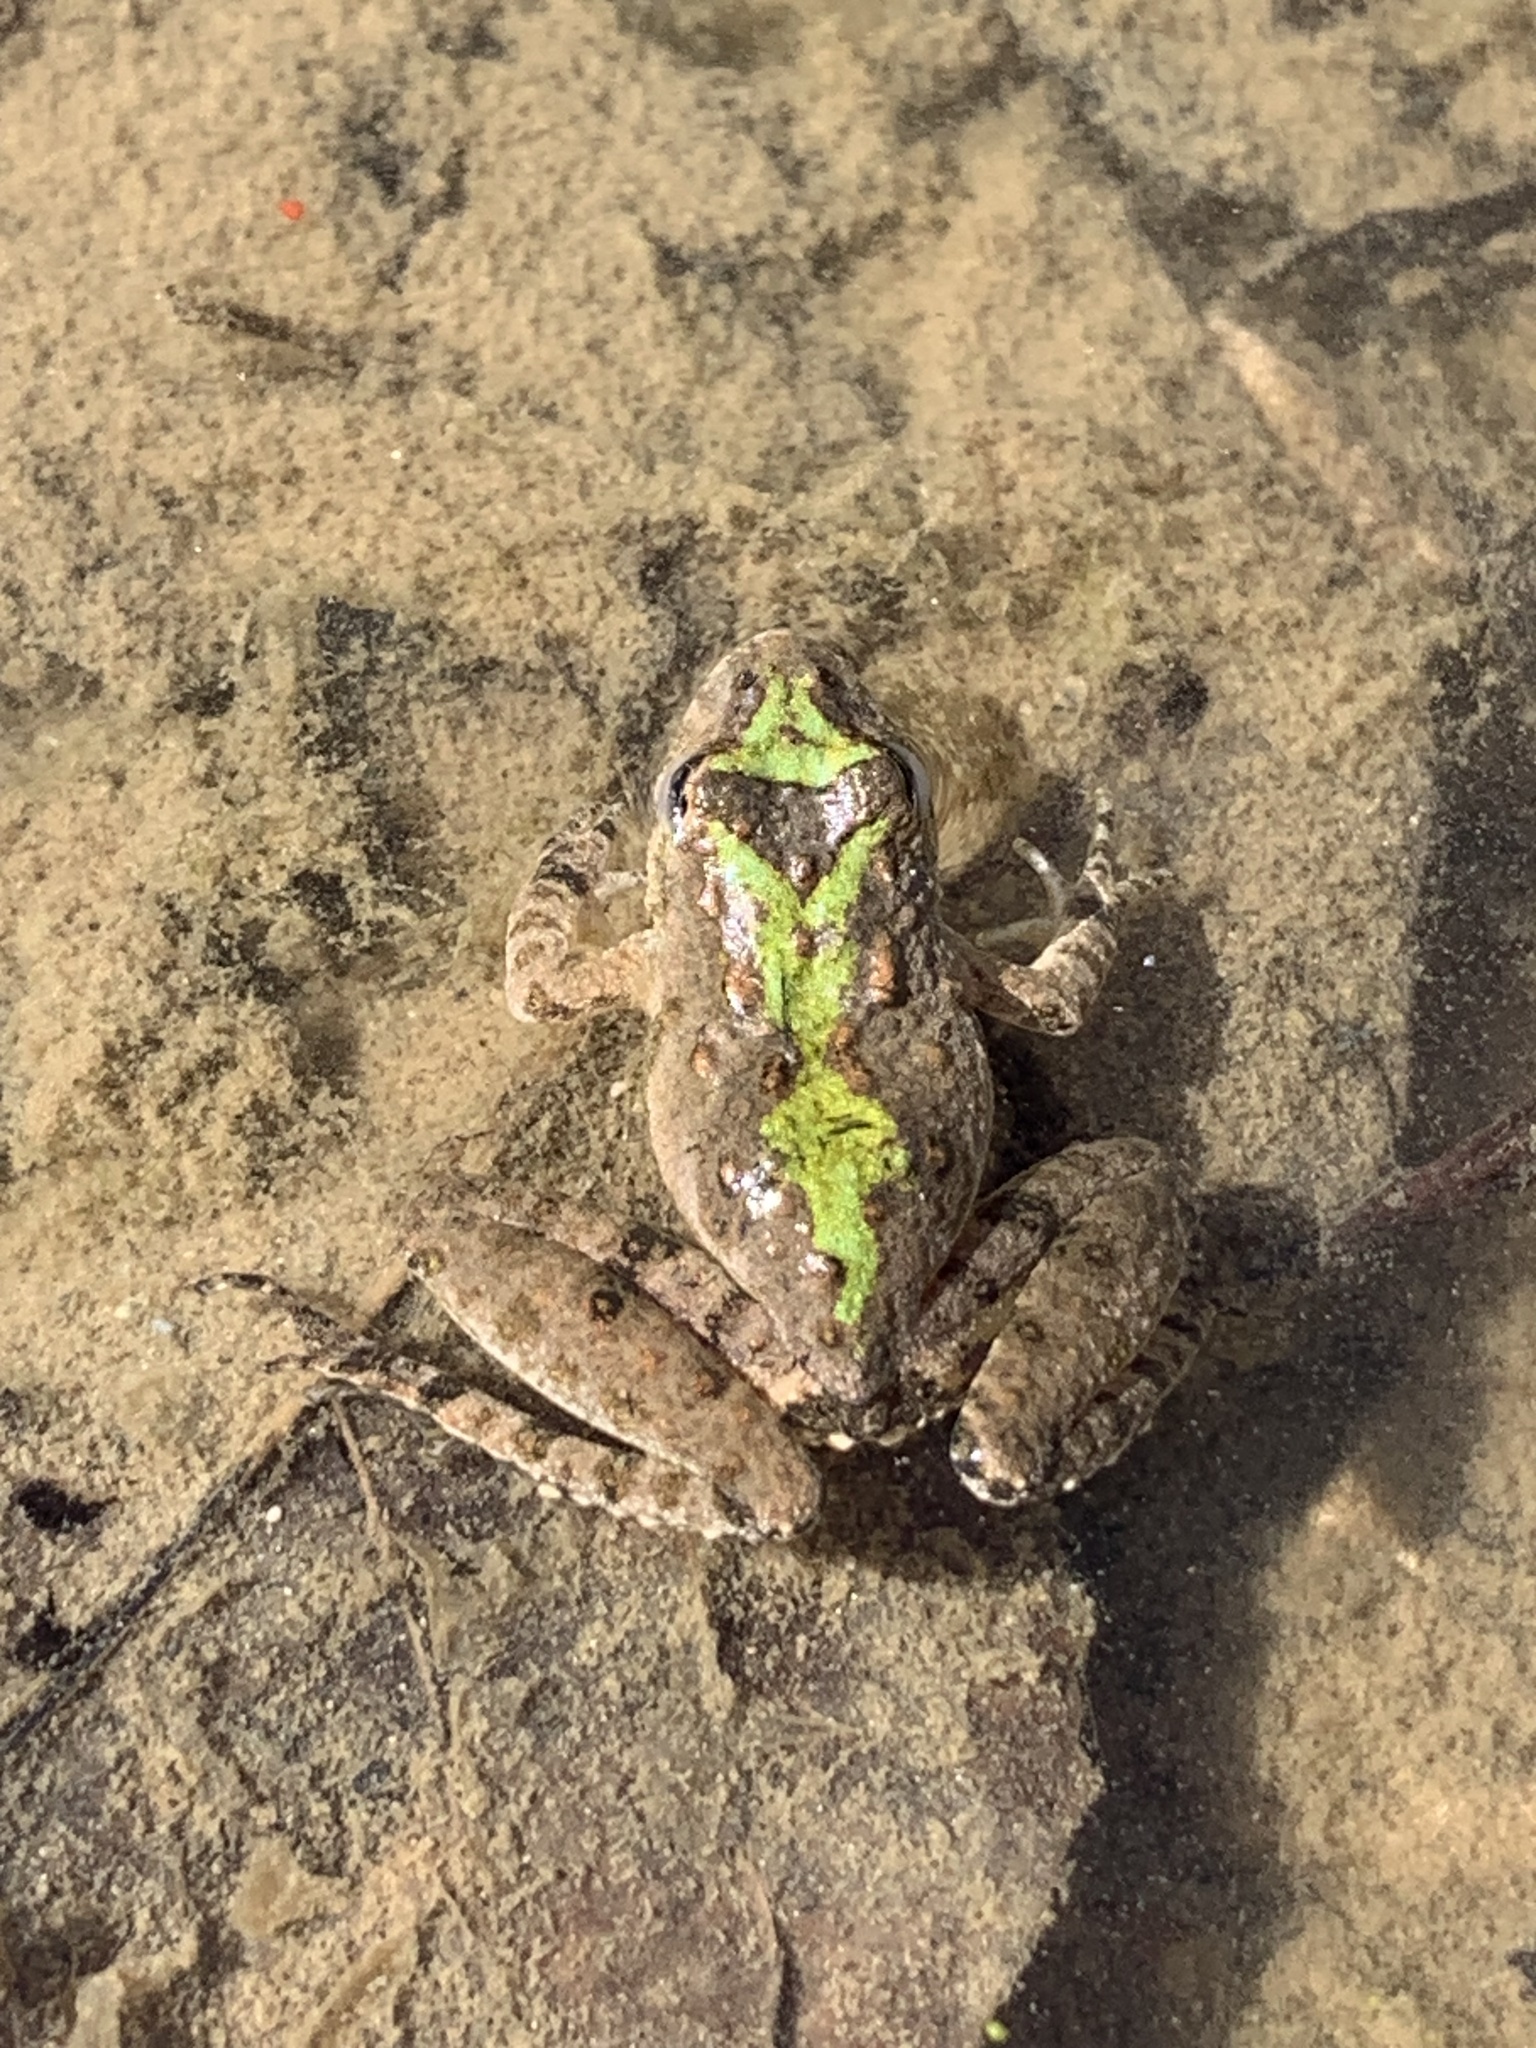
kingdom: Animalia
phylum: Chordata
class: Amphibia
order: Anura
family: Hylidae
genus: Acris
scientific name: Acris blanchardi
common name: Blanchard's cricket frog
